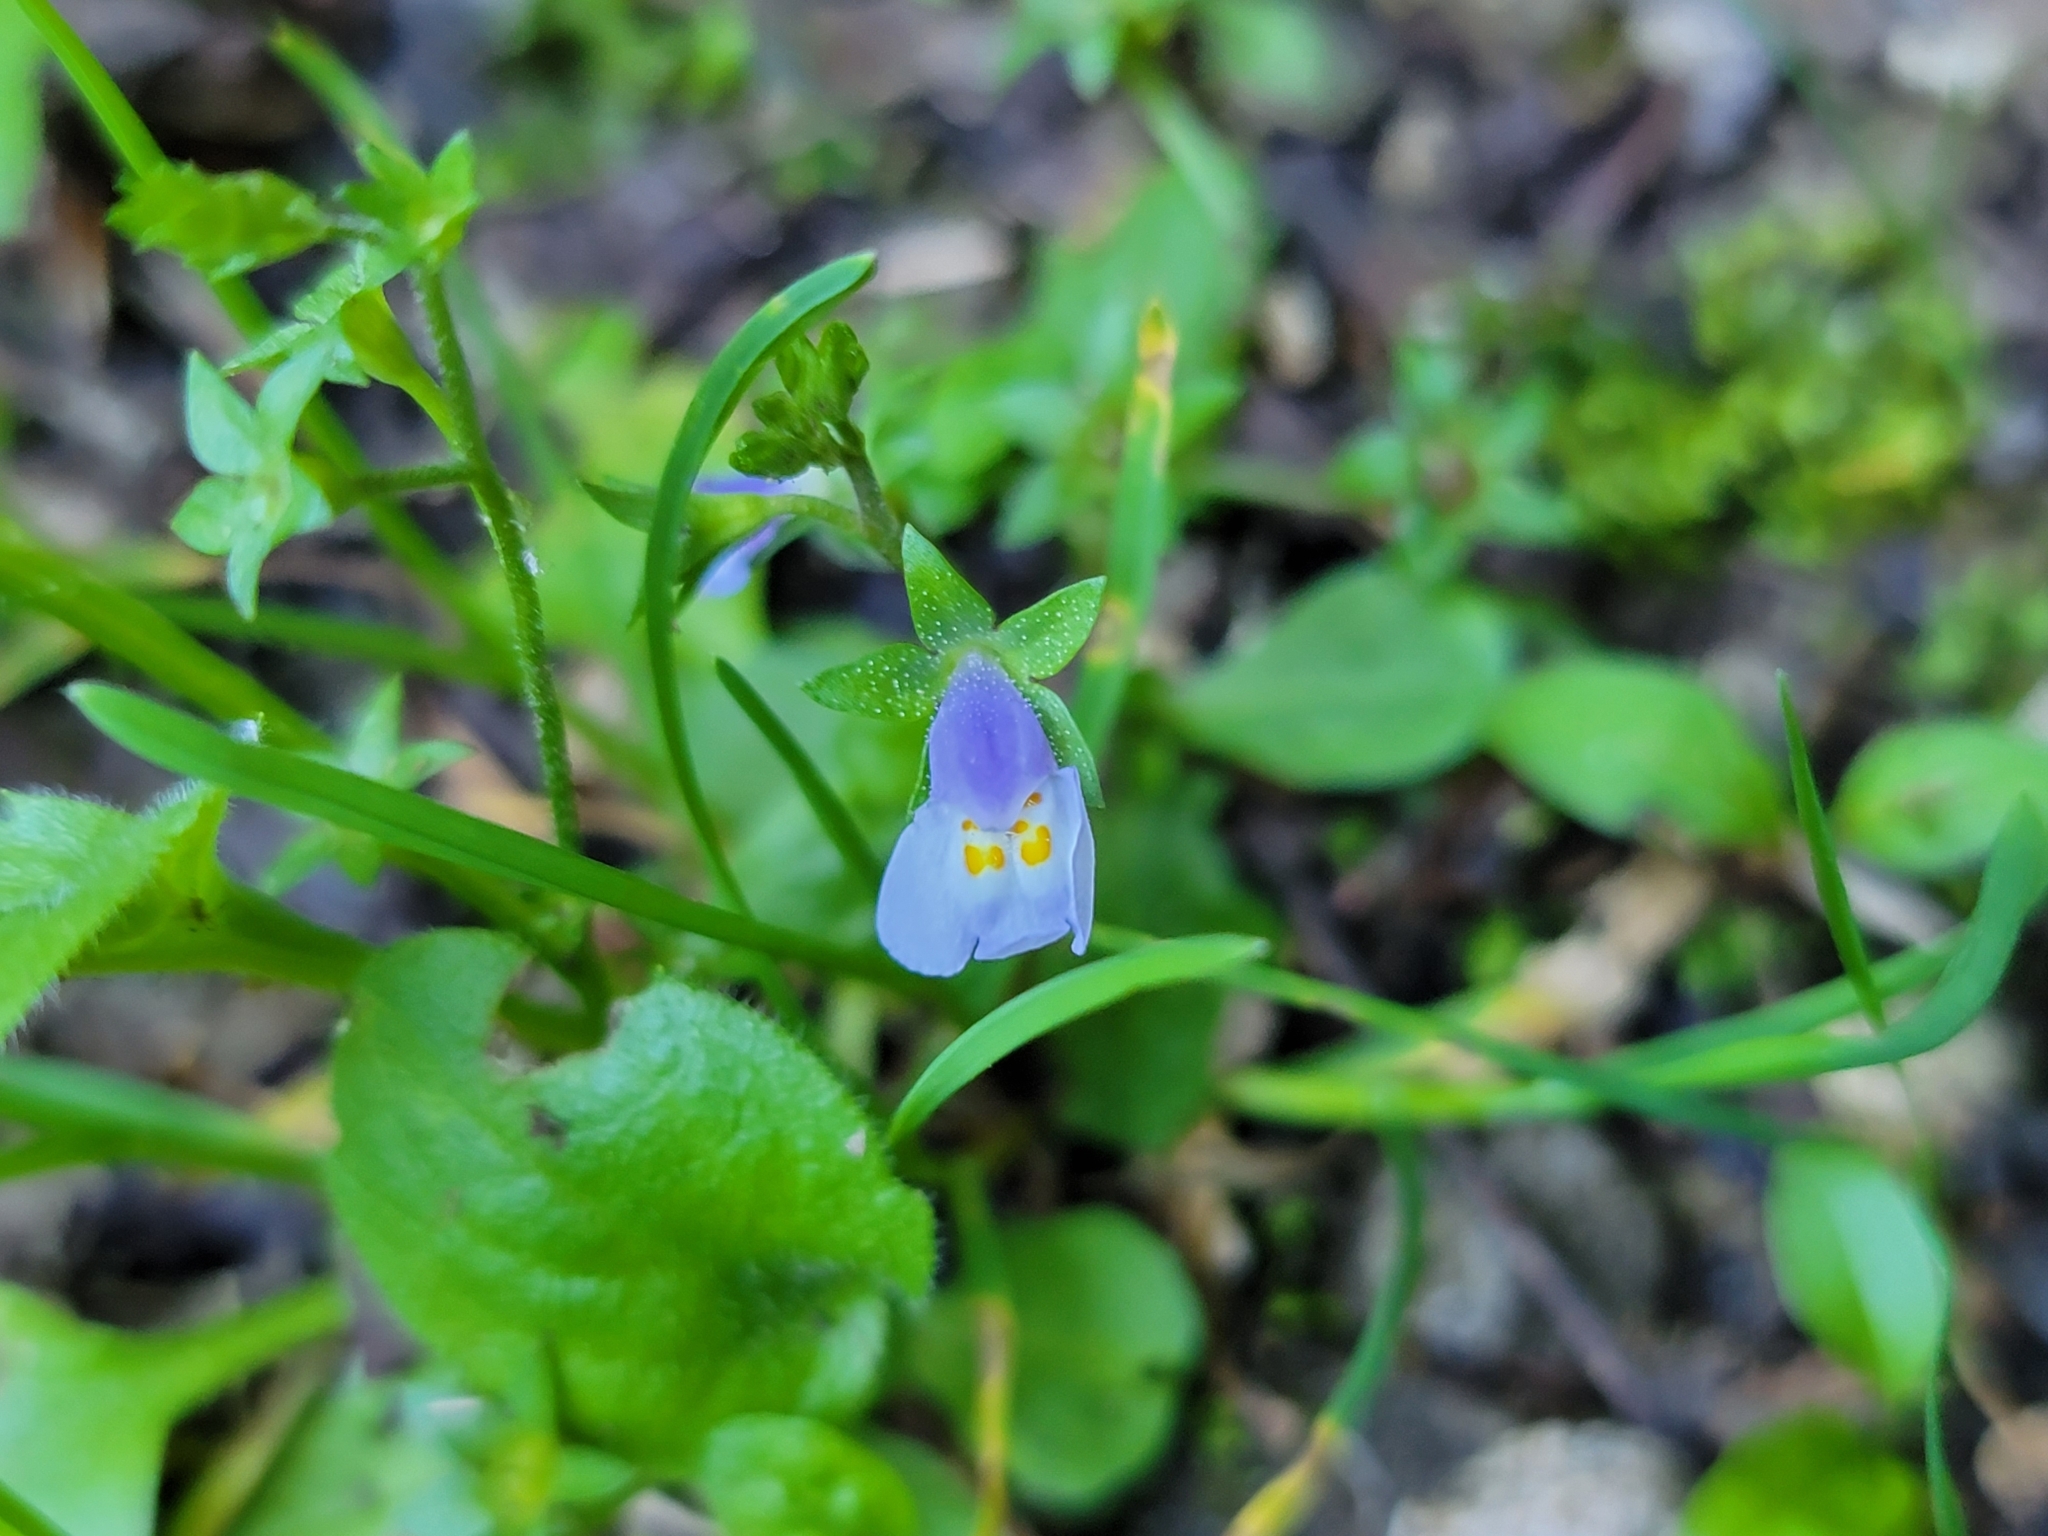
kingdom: Plantae
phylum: Tracheophyta
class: Magnoliopsida
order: Lamiales
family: Mazaceae
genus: Mazus
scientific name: Mazus pumilus
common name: Japanese mazus
